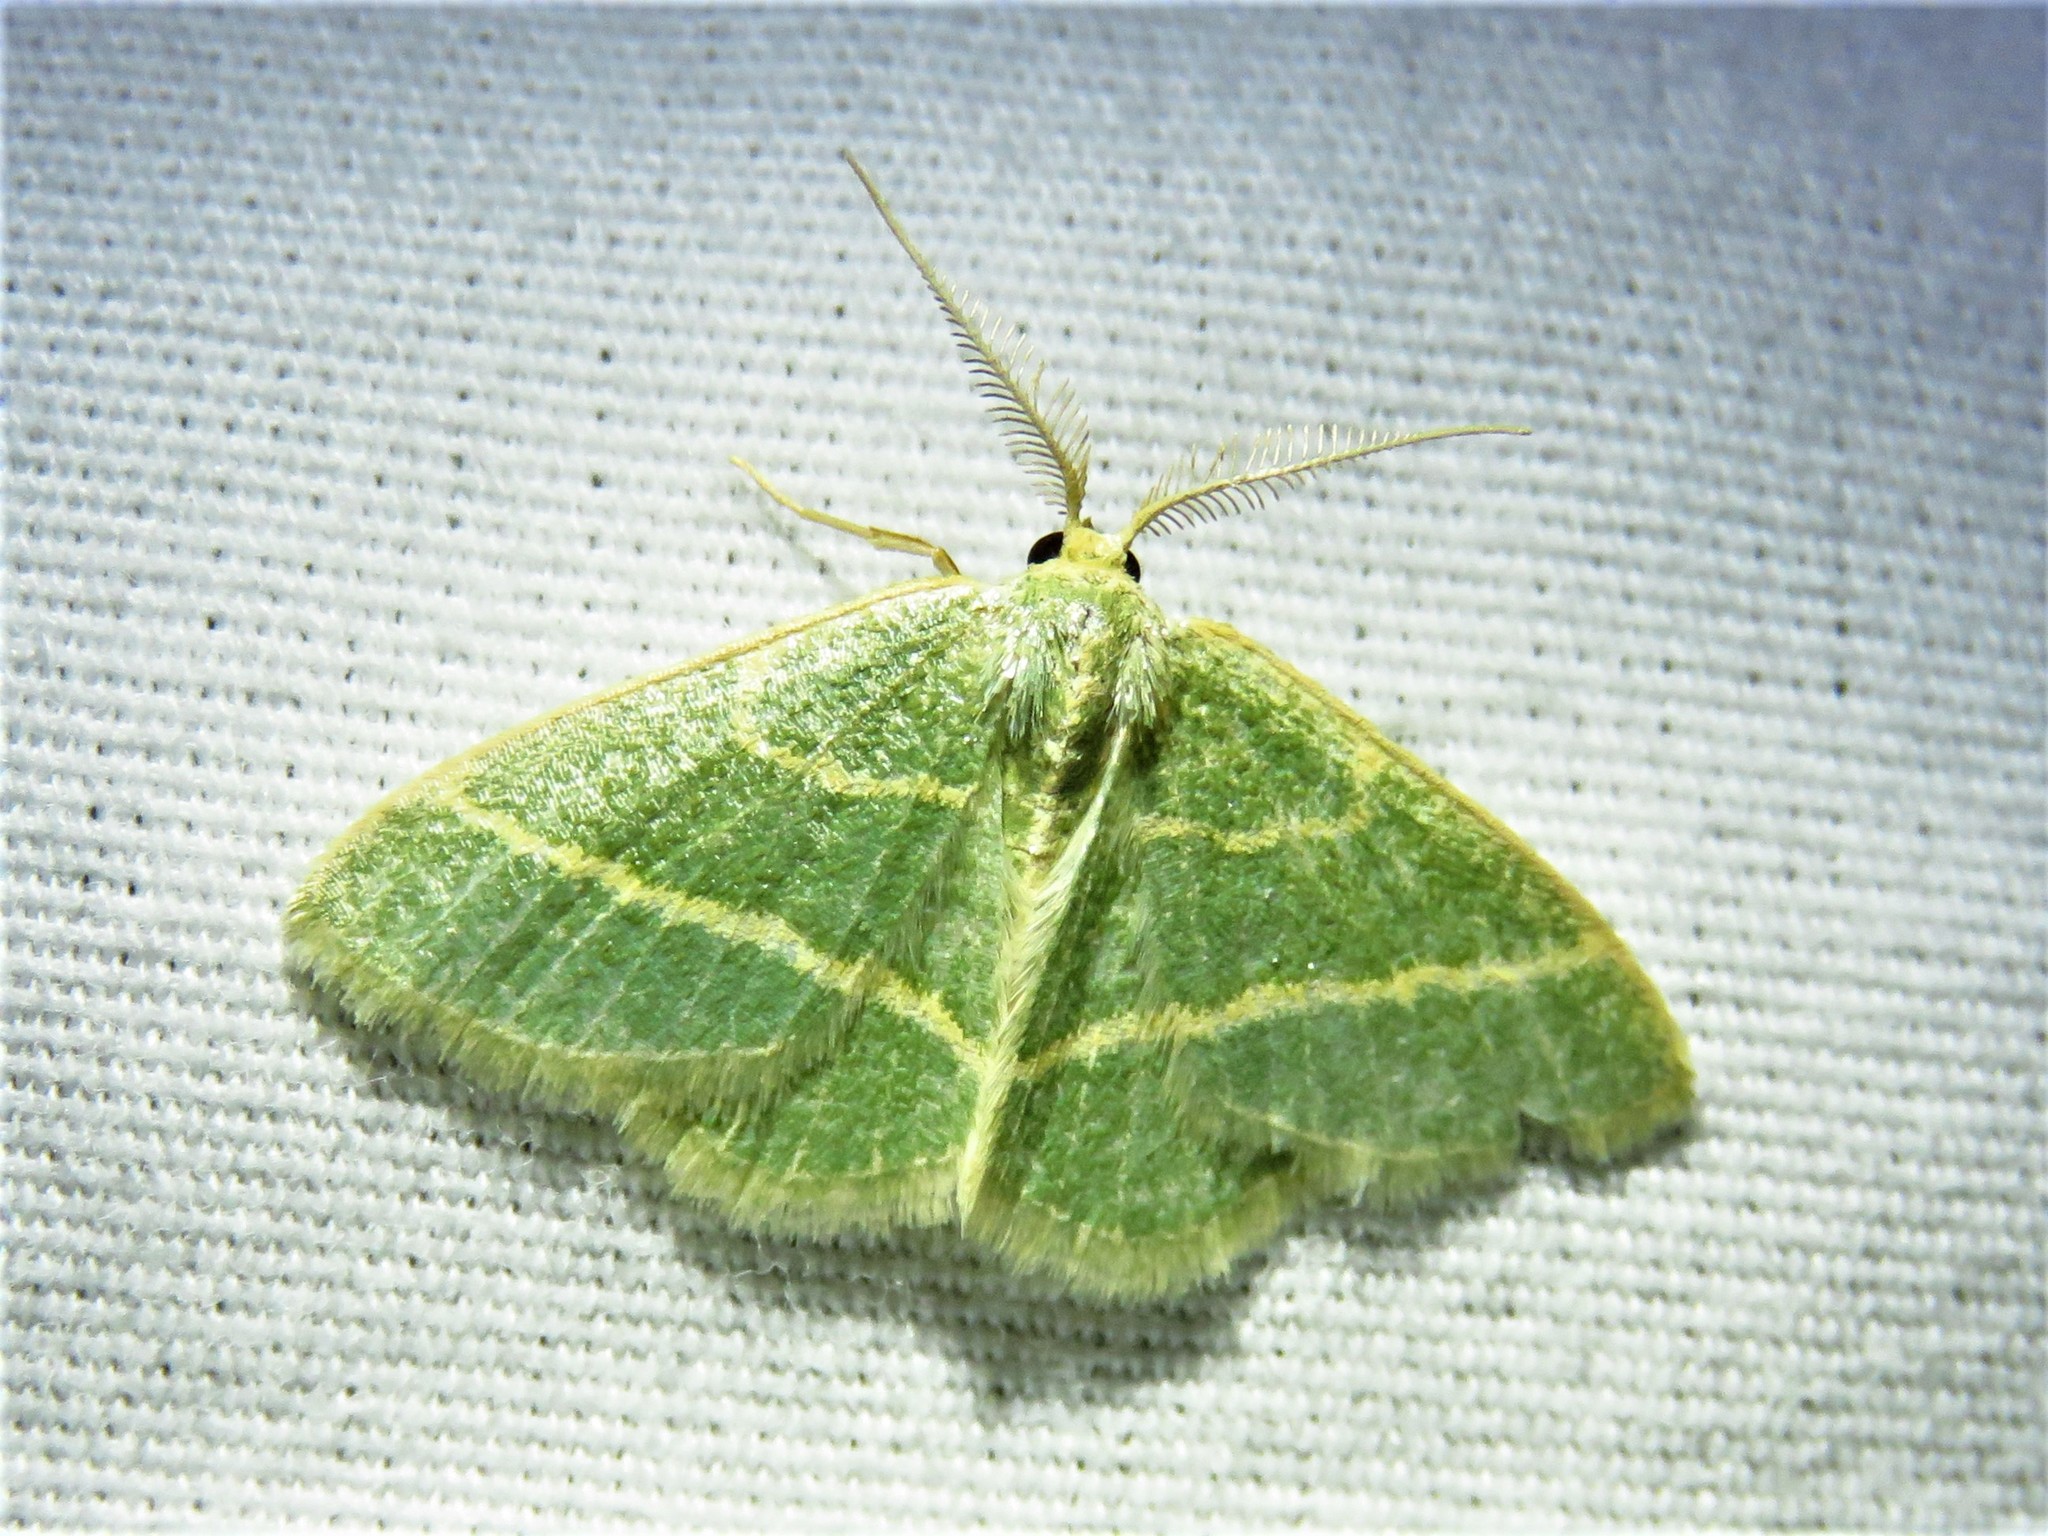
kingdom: Animalia
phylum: Arthropoda
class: Insecta
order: Lepidoptera
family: Geometridae
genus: Chlorochlamys
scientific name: Chlorochlamys chloroleucaria
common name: Blackberry looper
